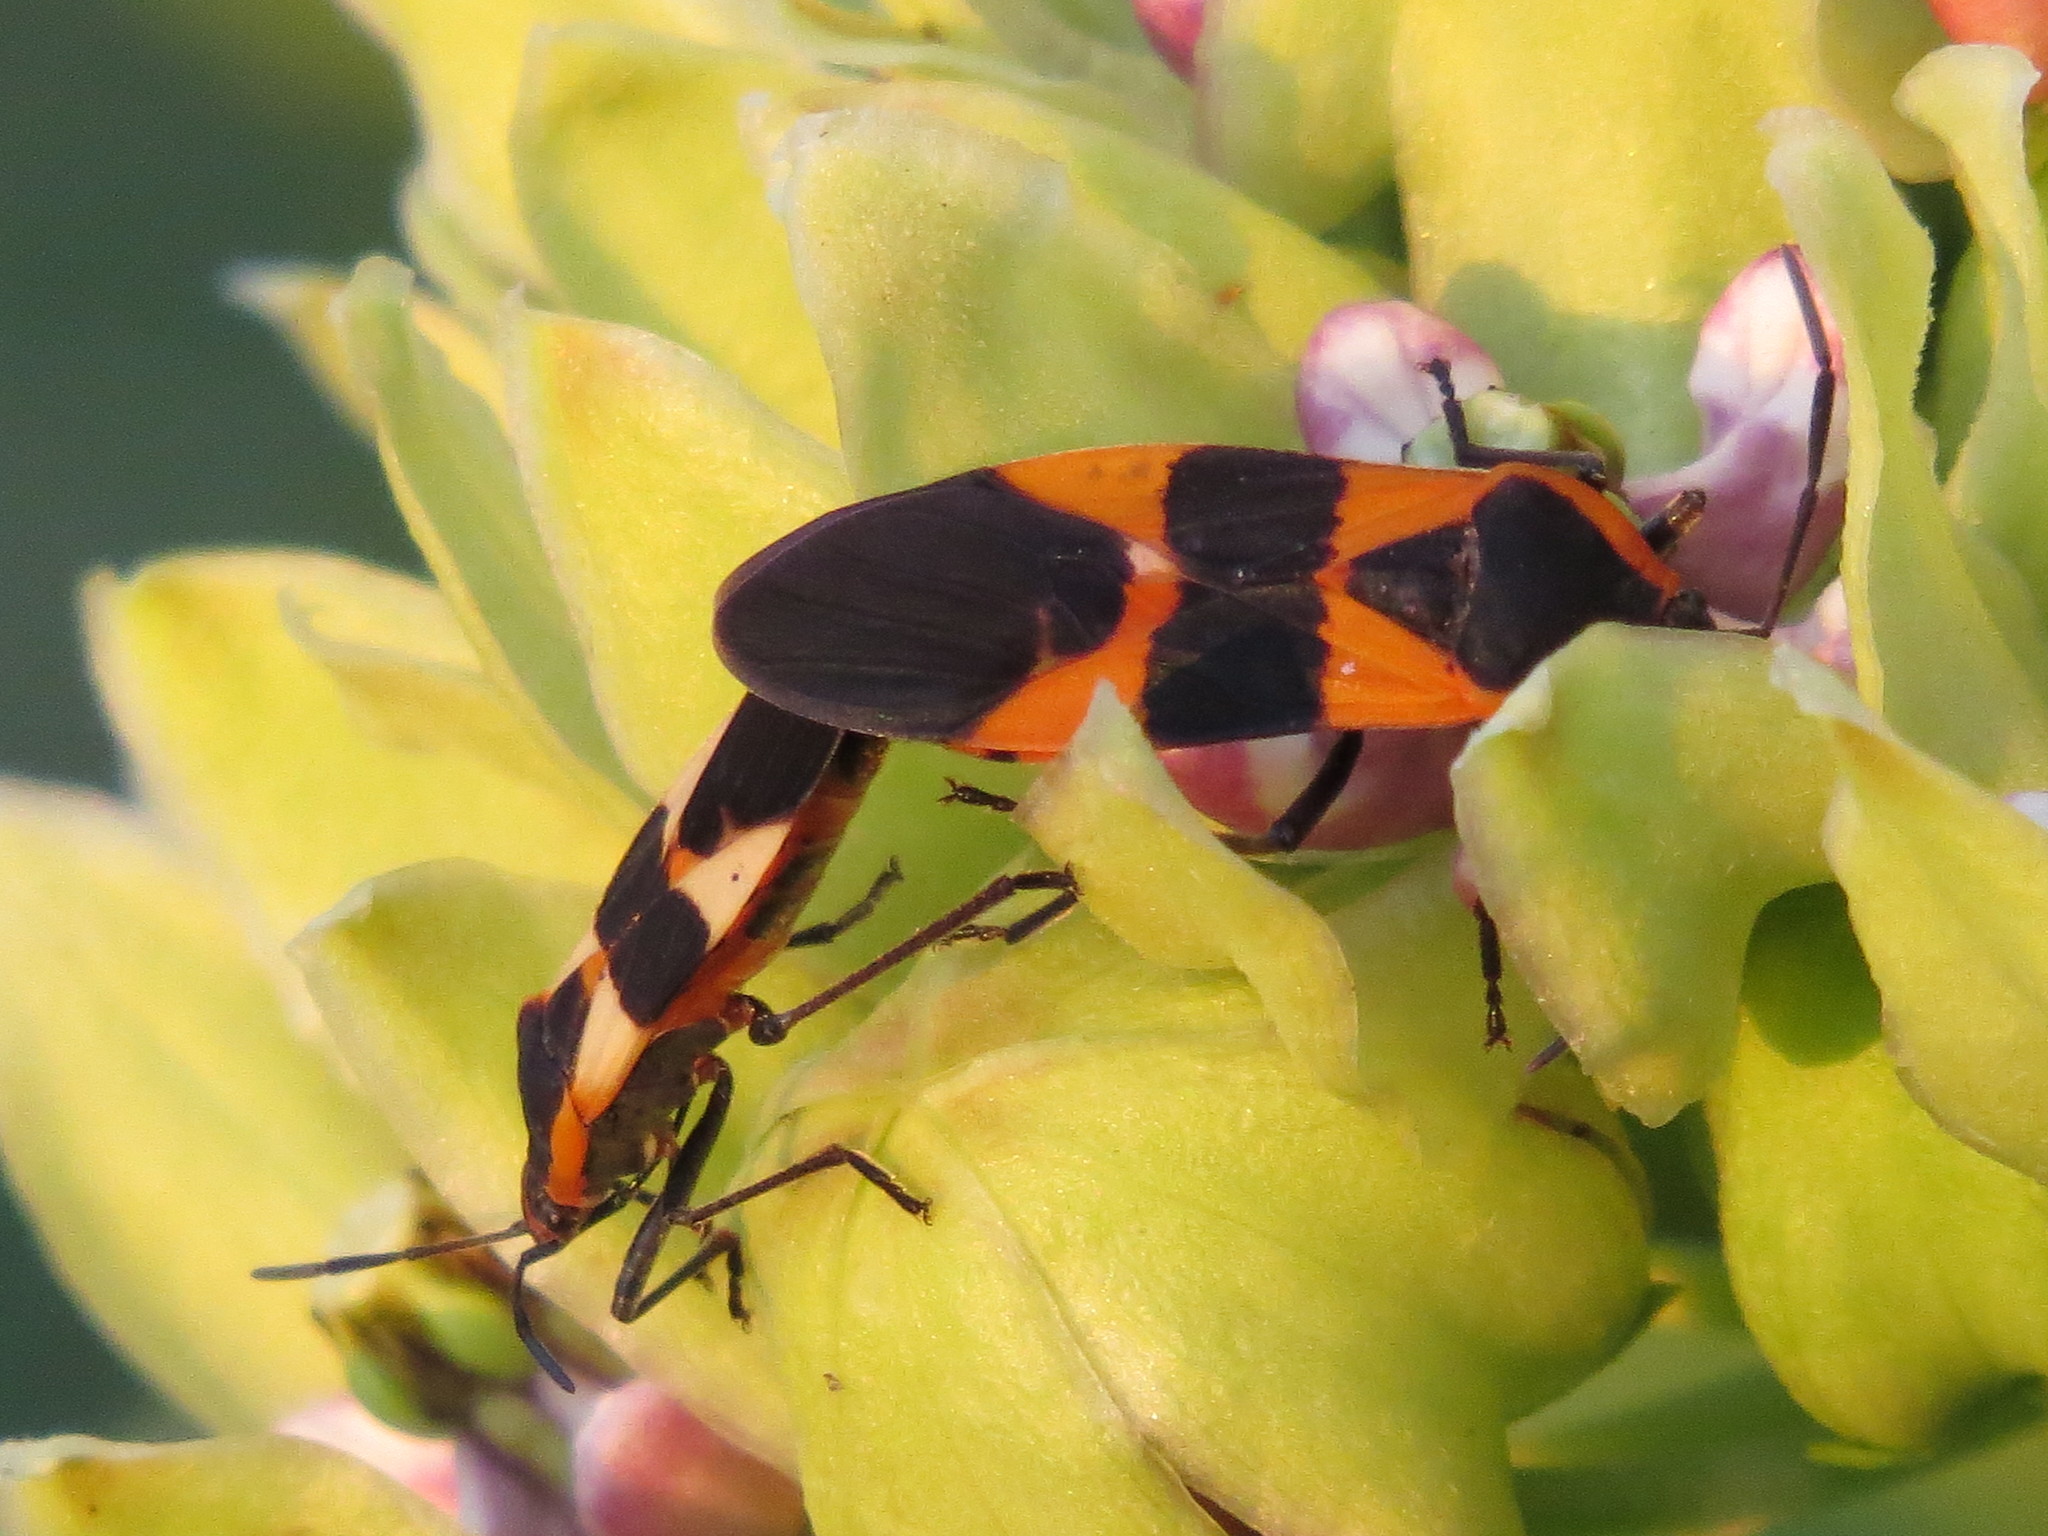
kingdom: Animalia
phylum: Arthropoda
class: Insecta
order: Hemiptera
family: Lygaeidae
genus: Oncopeltus
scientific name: Oncopeltus fasciatus
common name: Large milkweed bug
